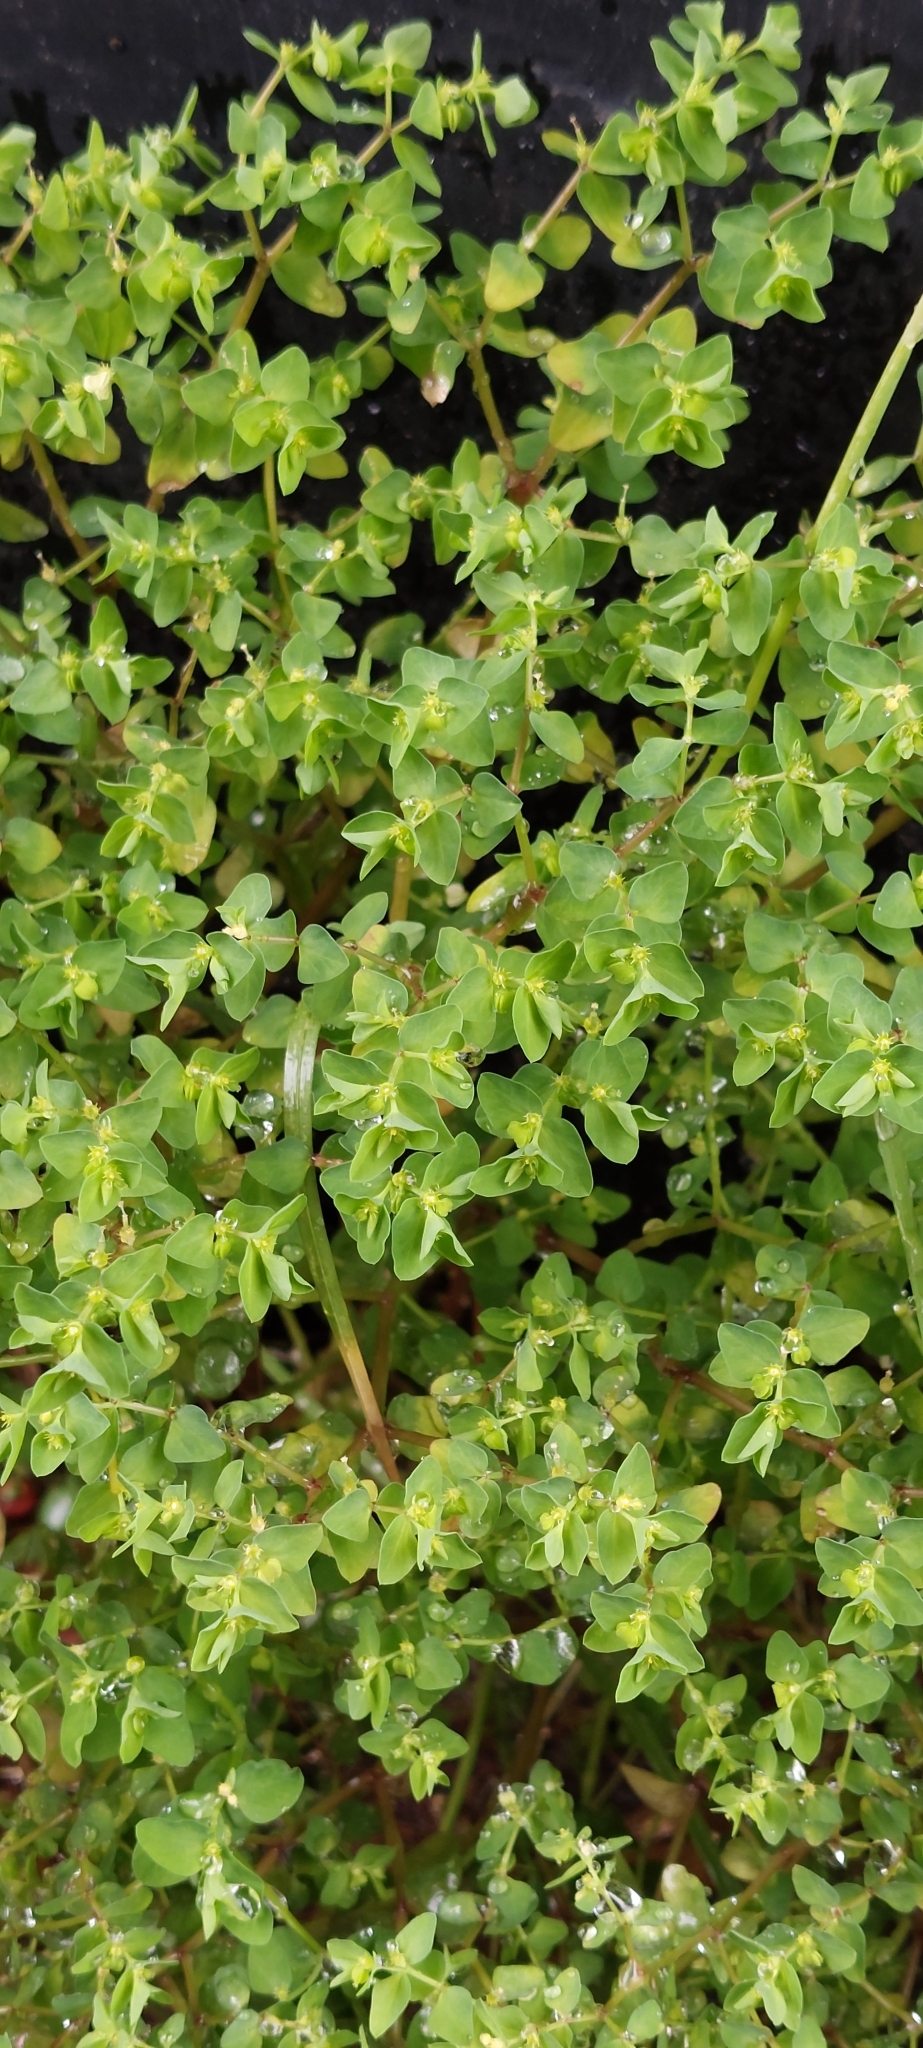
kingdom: Plantae
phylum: Tracheophyta
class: Magnoliopsida
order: Malpighiales
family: Euphorbiaceae
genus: Euphorbia
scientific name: Euphorbia peplus
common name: Petty spurge
